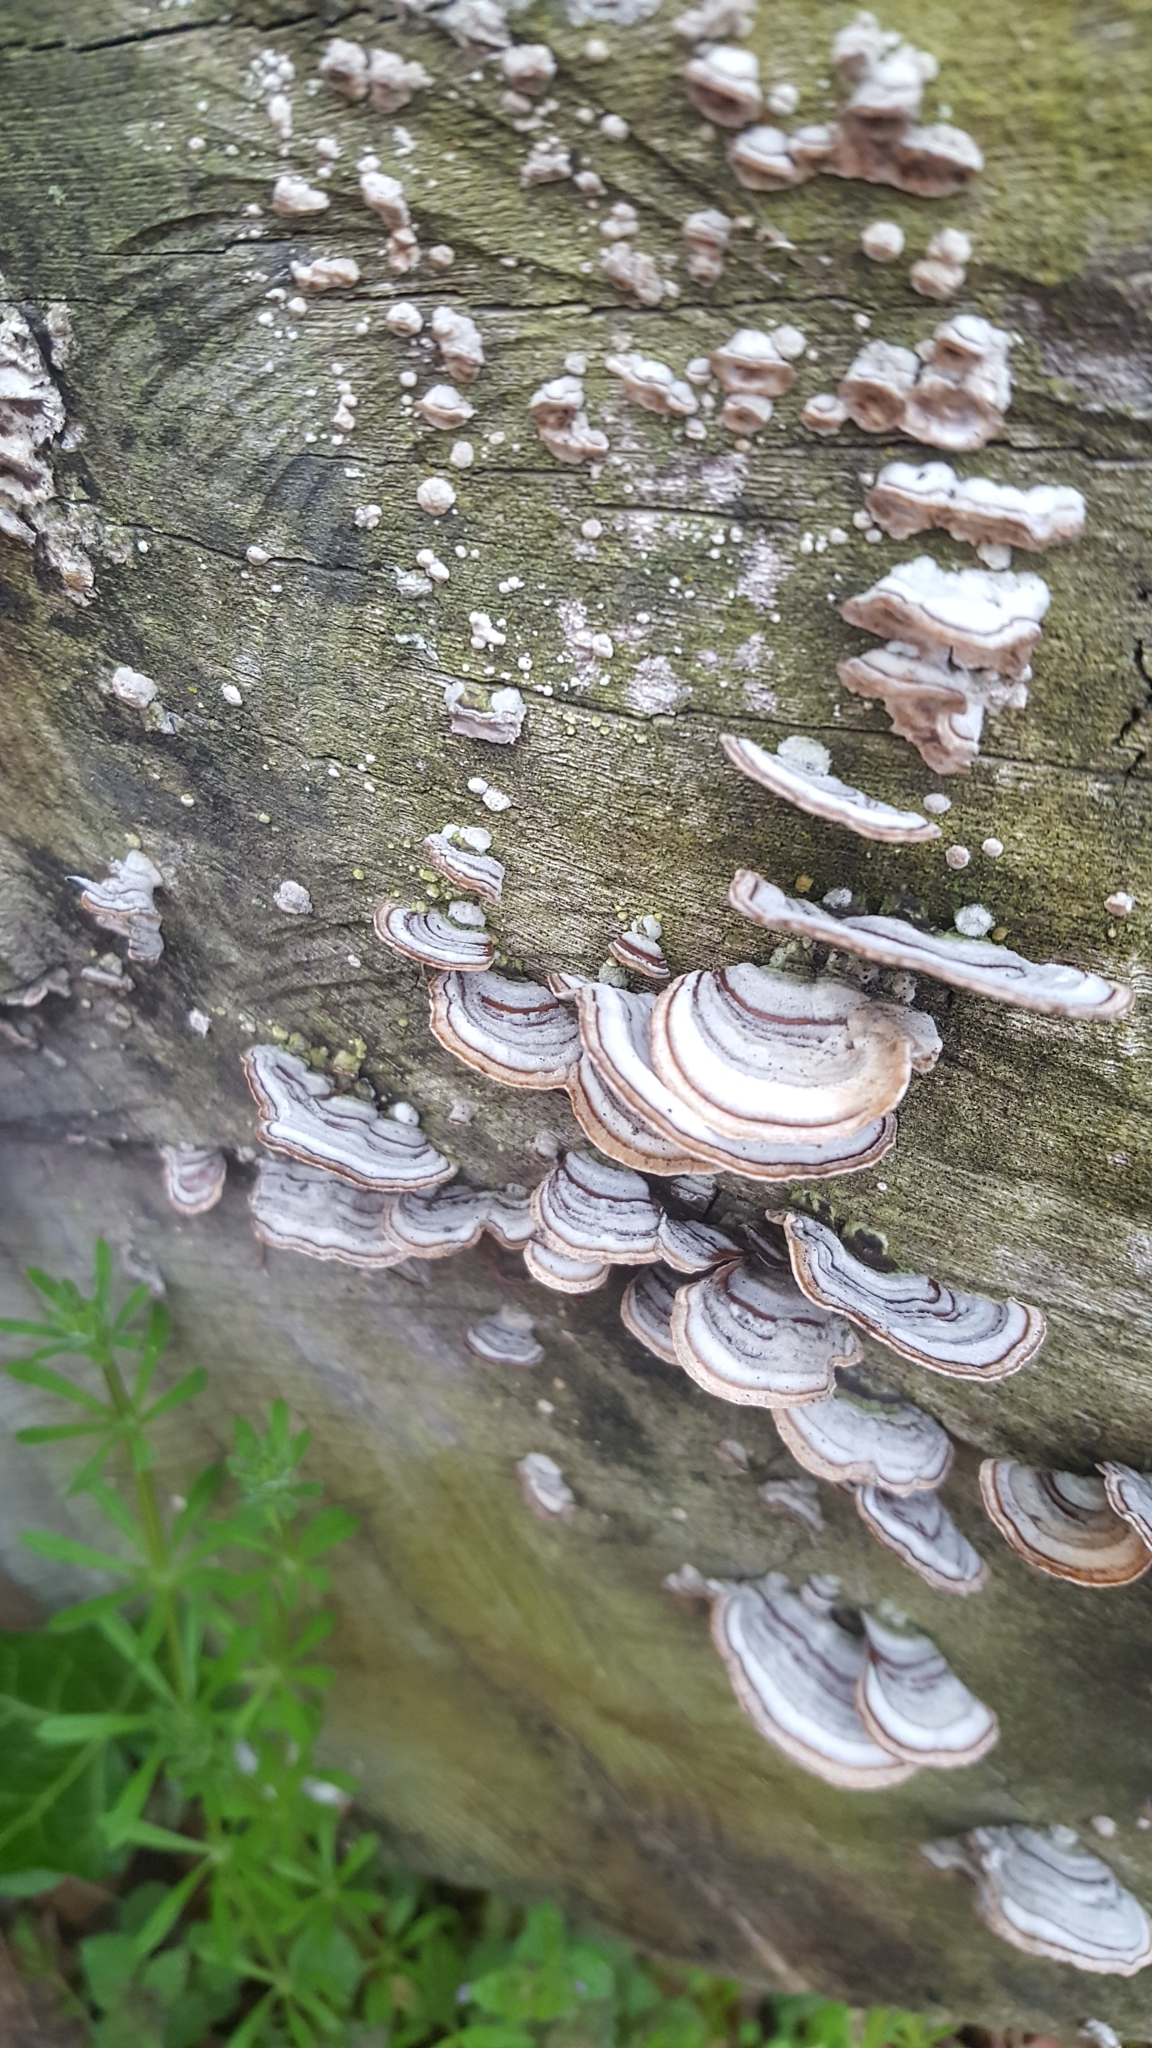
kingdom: Fungi
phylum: Basidiomycota
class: Agaricomycetes
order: Russulales
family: Stereaceae
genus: Stereum
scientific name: Stereum lobatum
